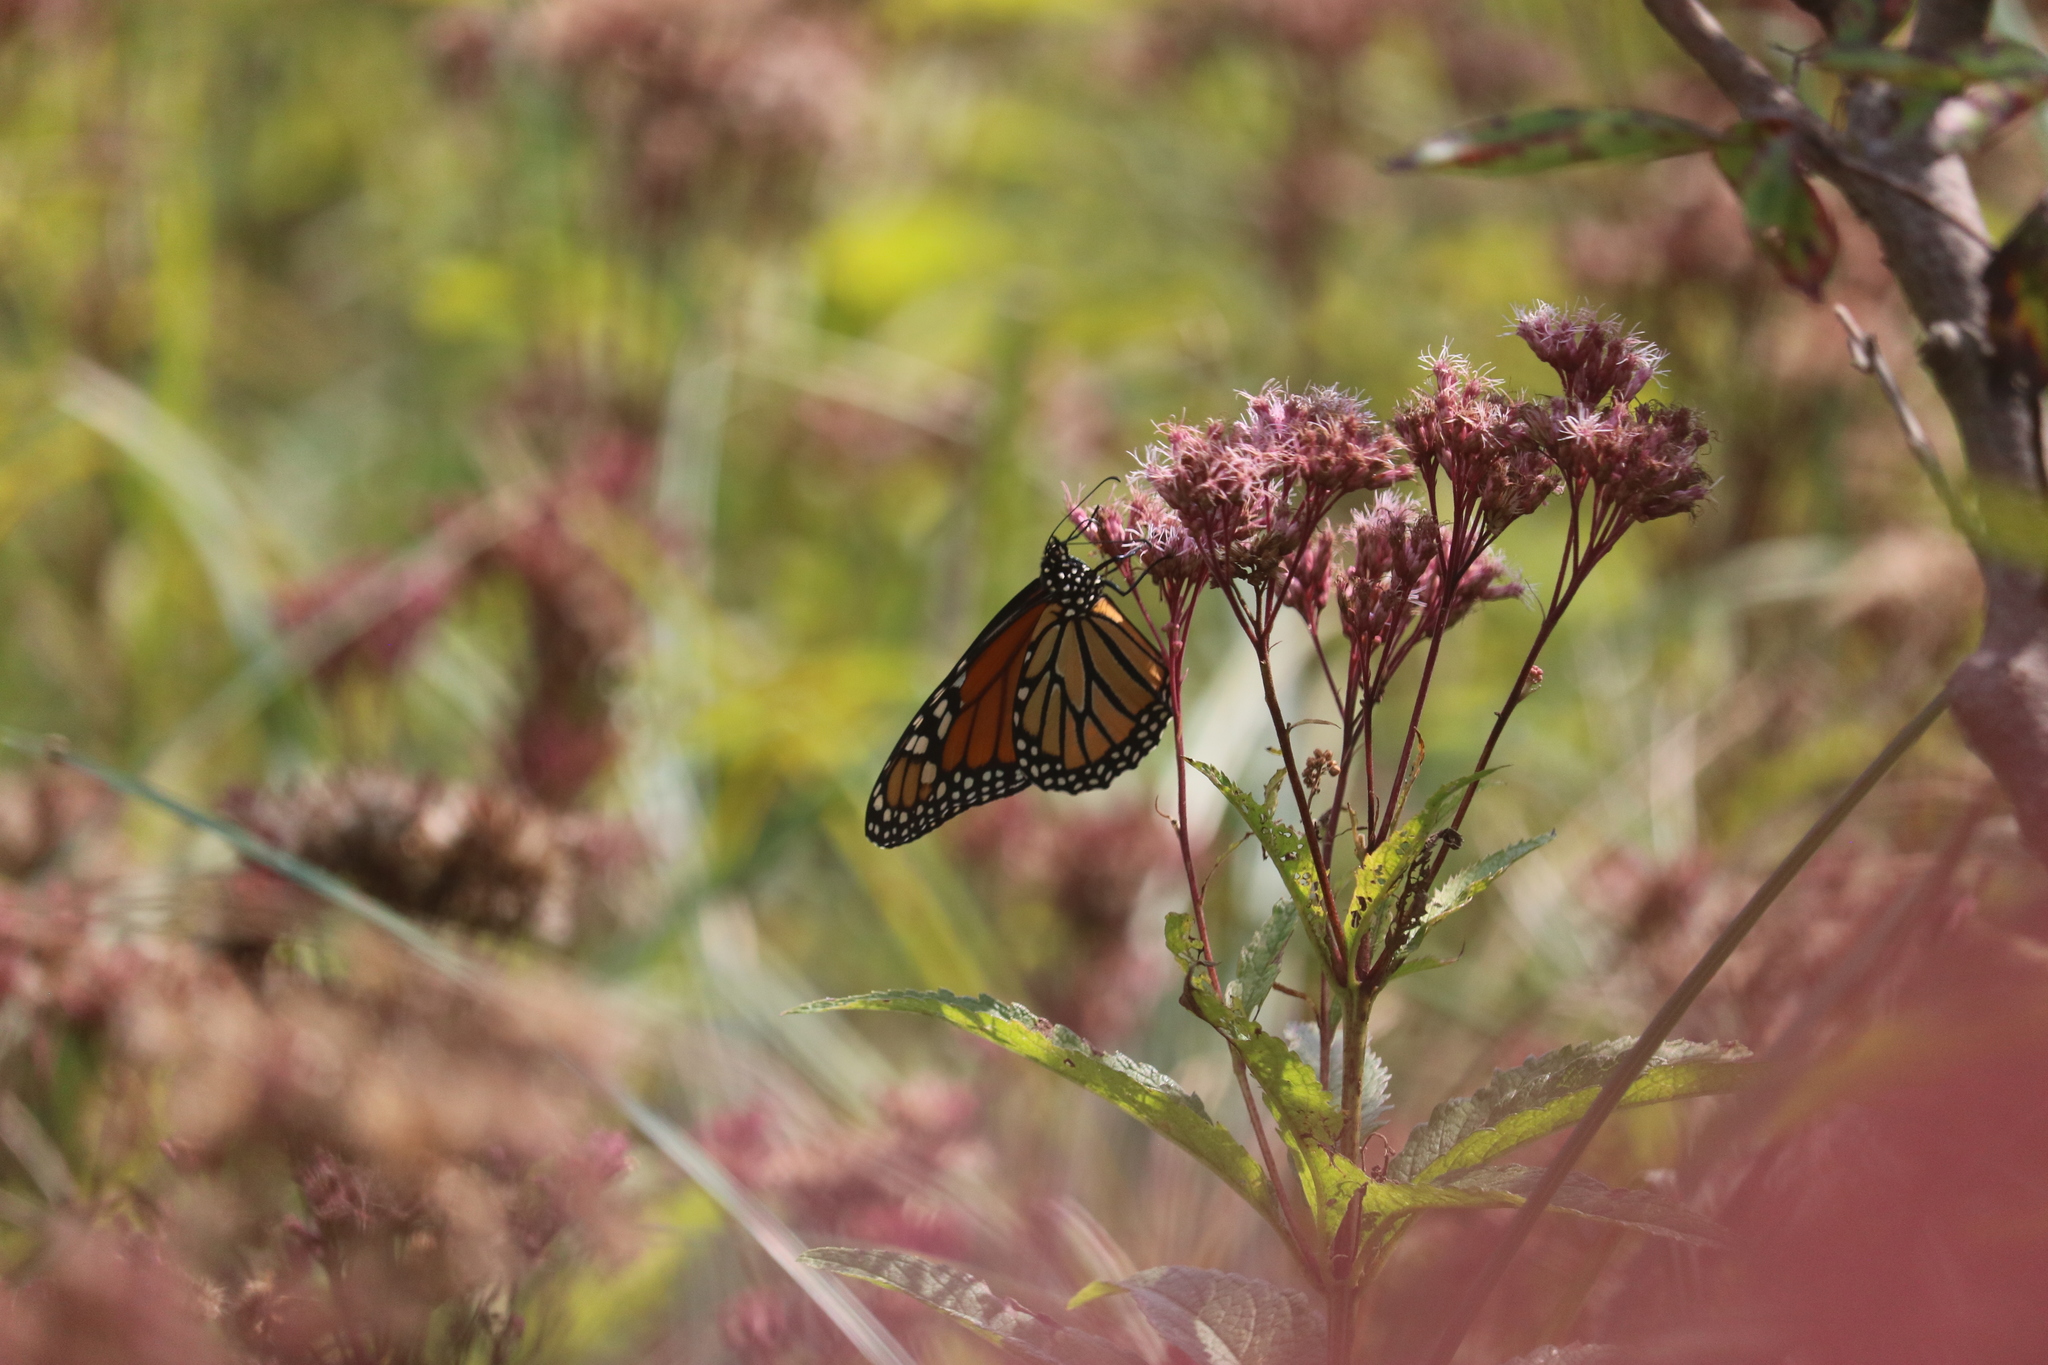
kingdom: Animalia
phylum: Arthropoda
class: Insecta
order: Lepidoptera
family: Nymphalidae
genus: Danaus
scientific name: Danaus plexippus
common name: Monarch
